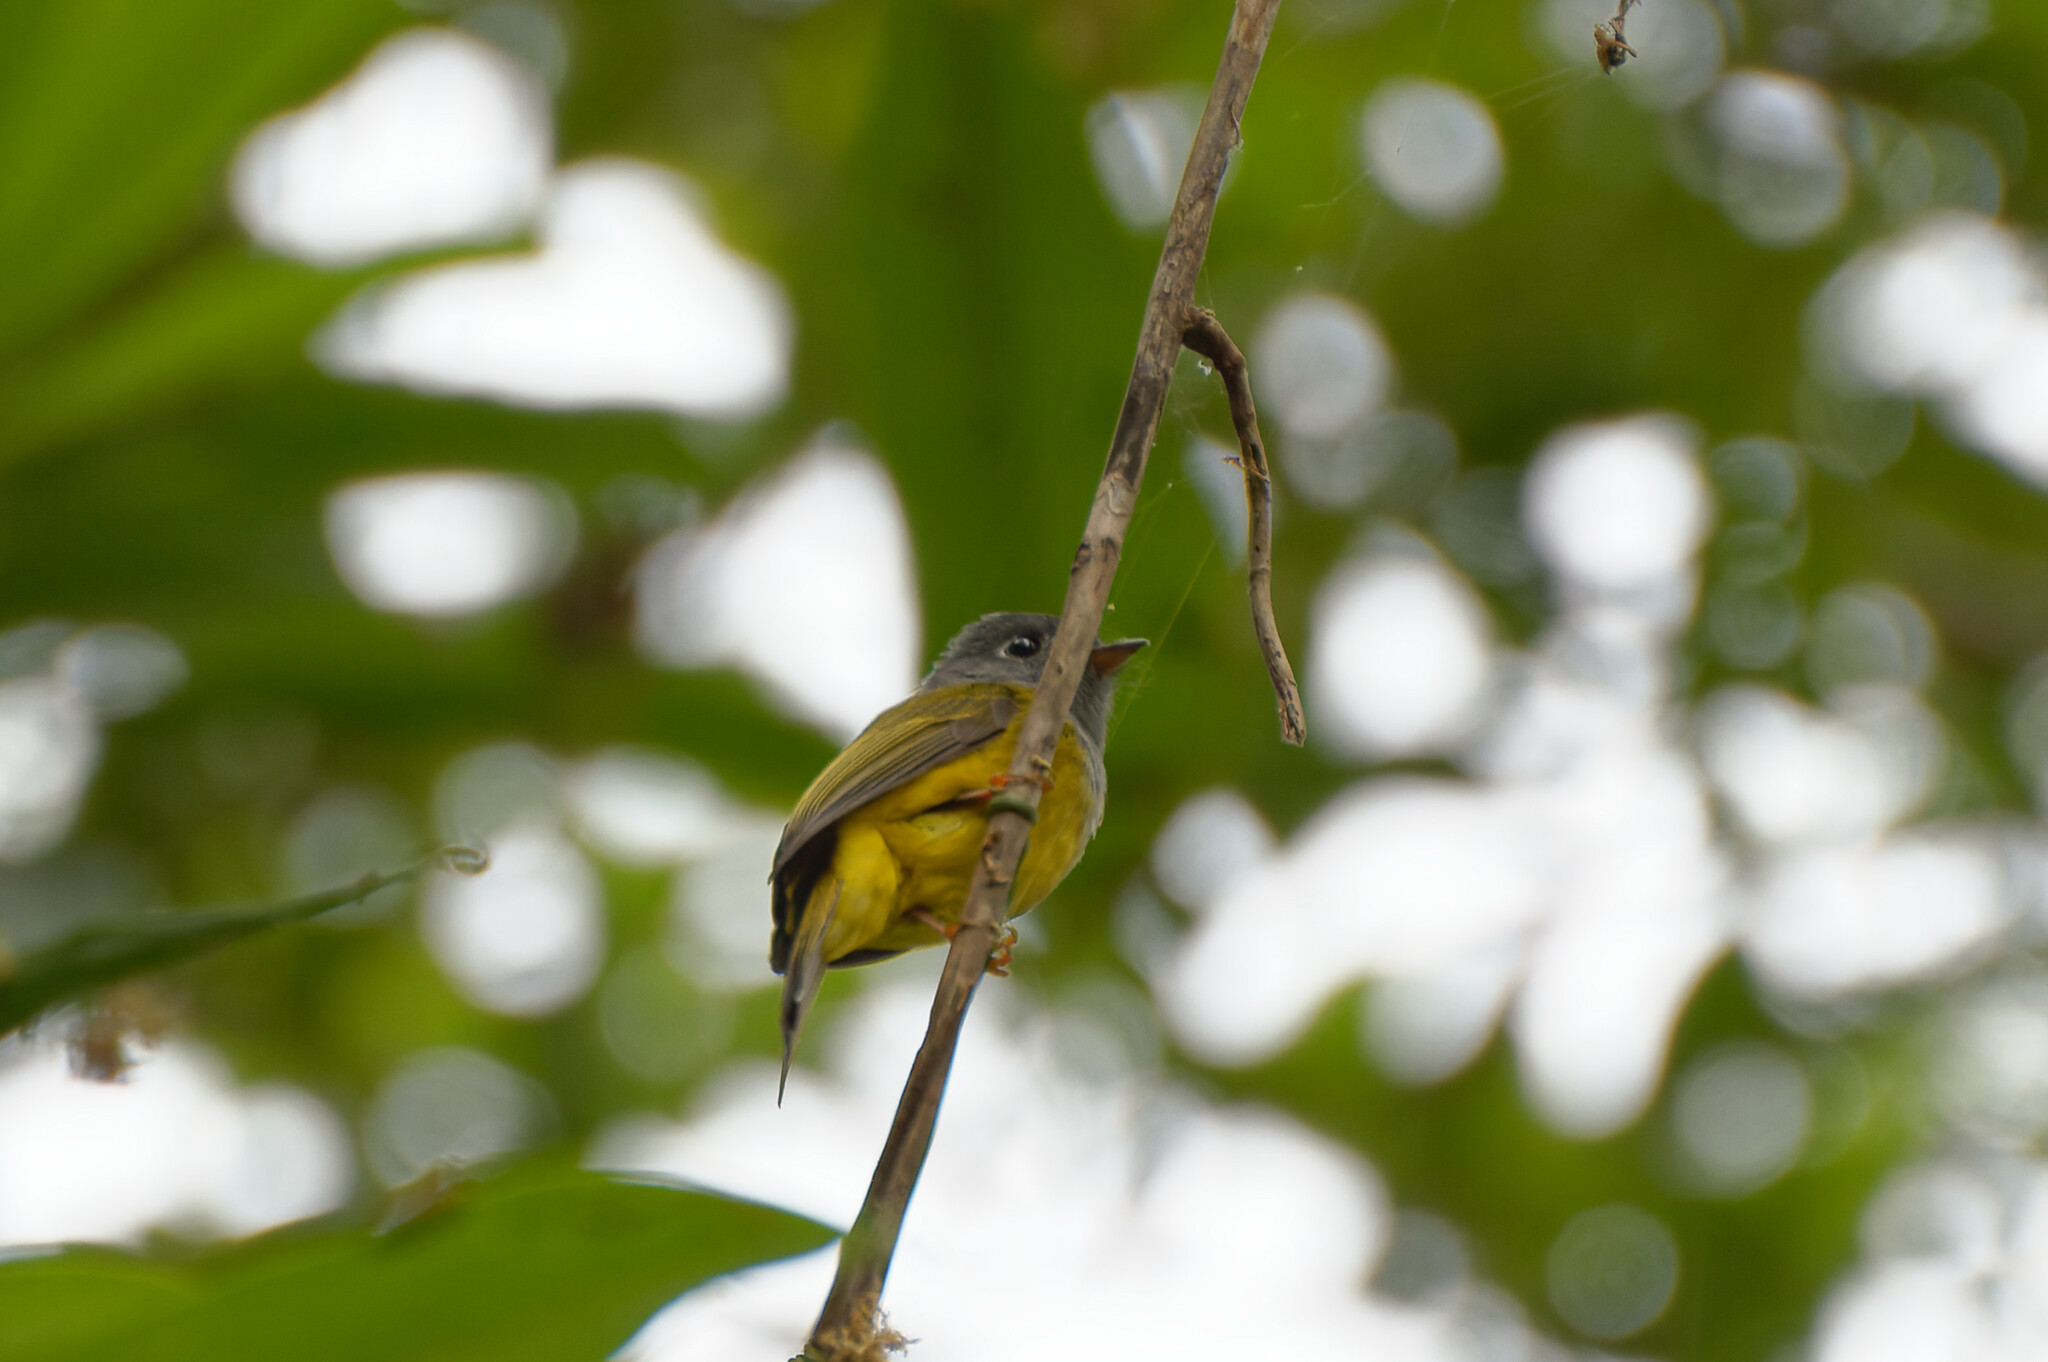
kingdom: Animalia
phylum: Chordata
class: Aves
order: Passeriformes
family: Stenostiridae
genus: Culicicapa
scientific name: Culicicapa ceylonensis
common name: Grey-headed canary-flycatcher
